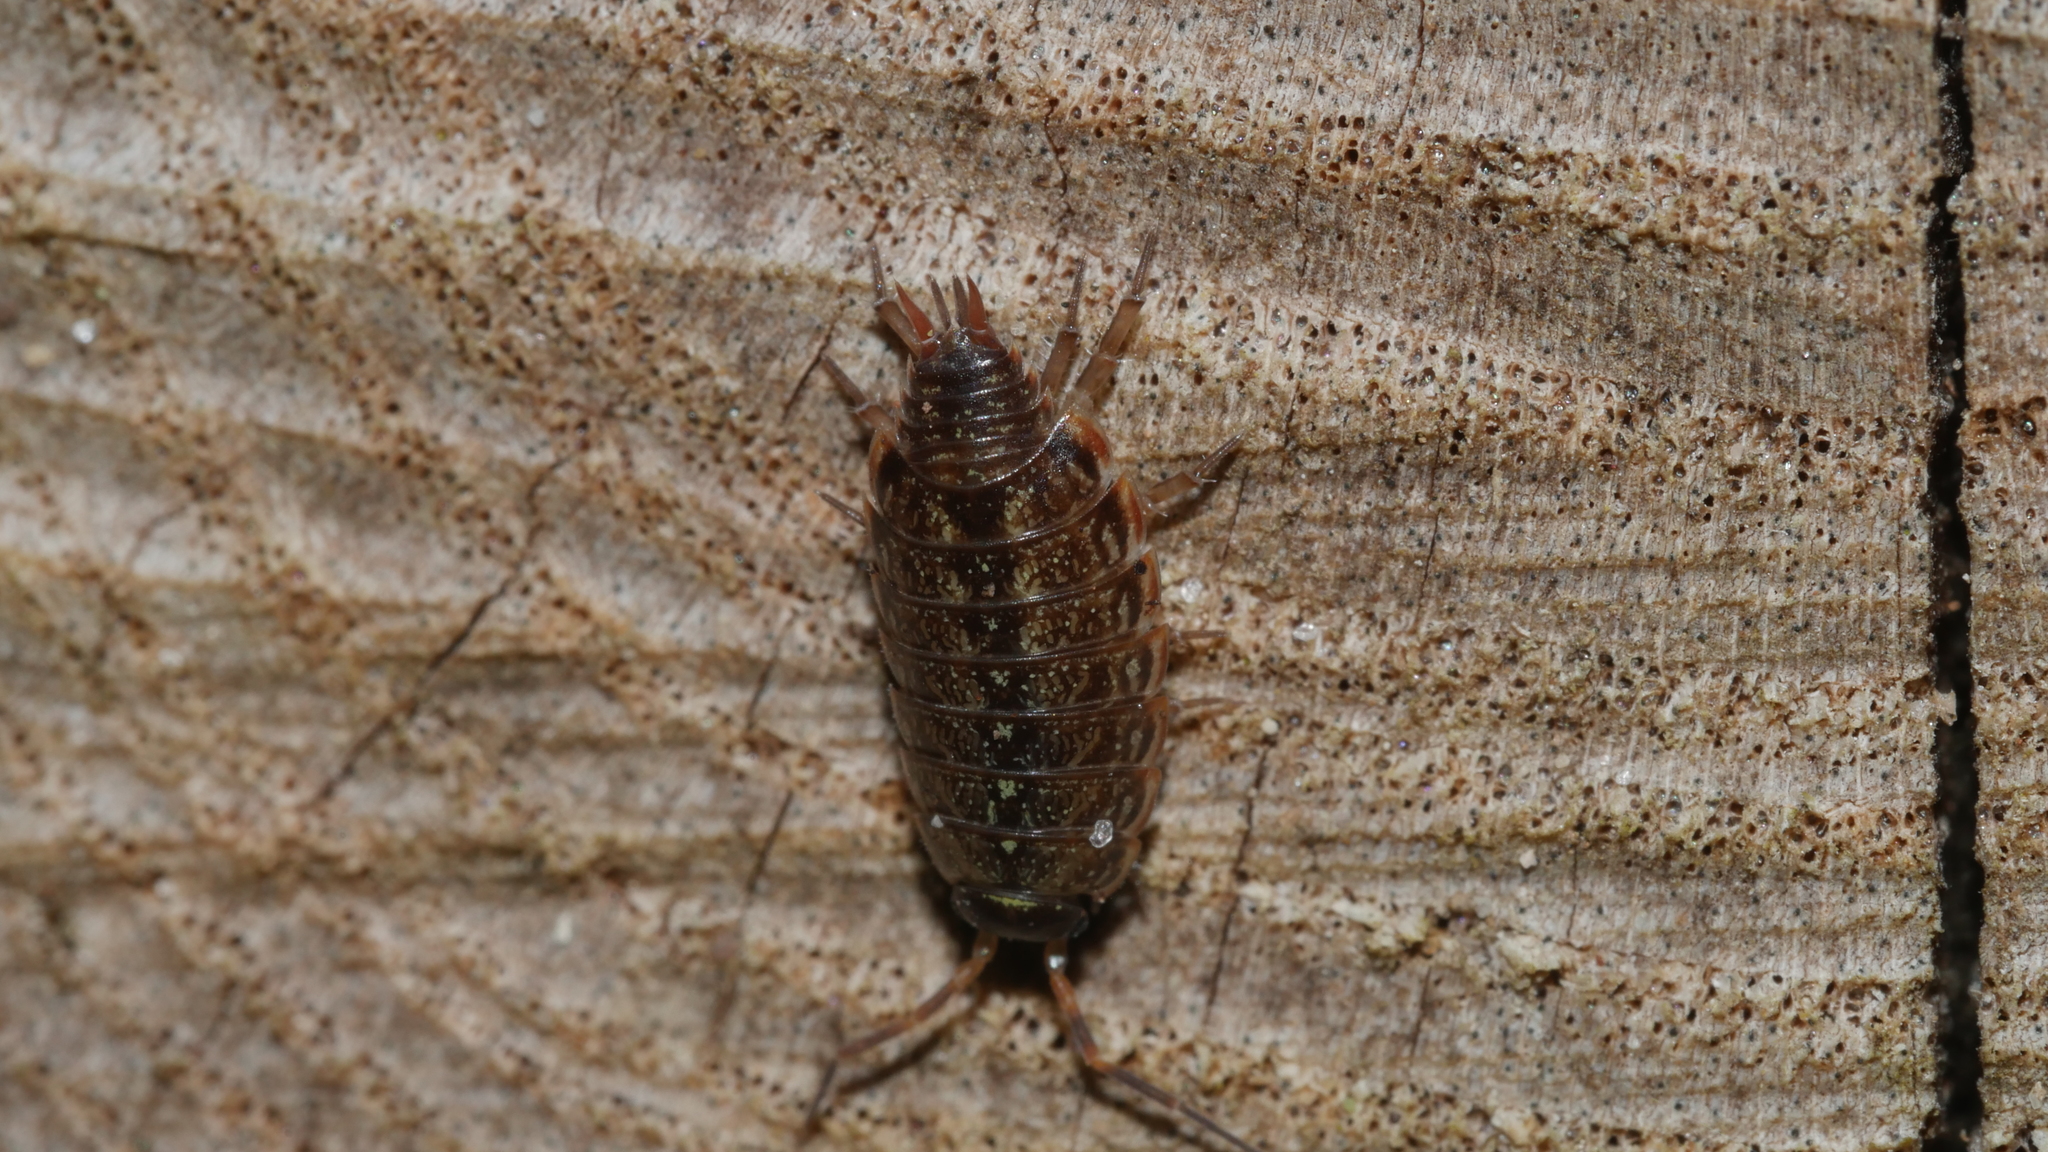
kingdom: Animalia
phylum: Arthropoda
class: Malacostraca
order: Isopoda
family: Philosciidae
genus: Philoscia
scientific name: Philoscia muscorum
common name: Common striped woodlouse
